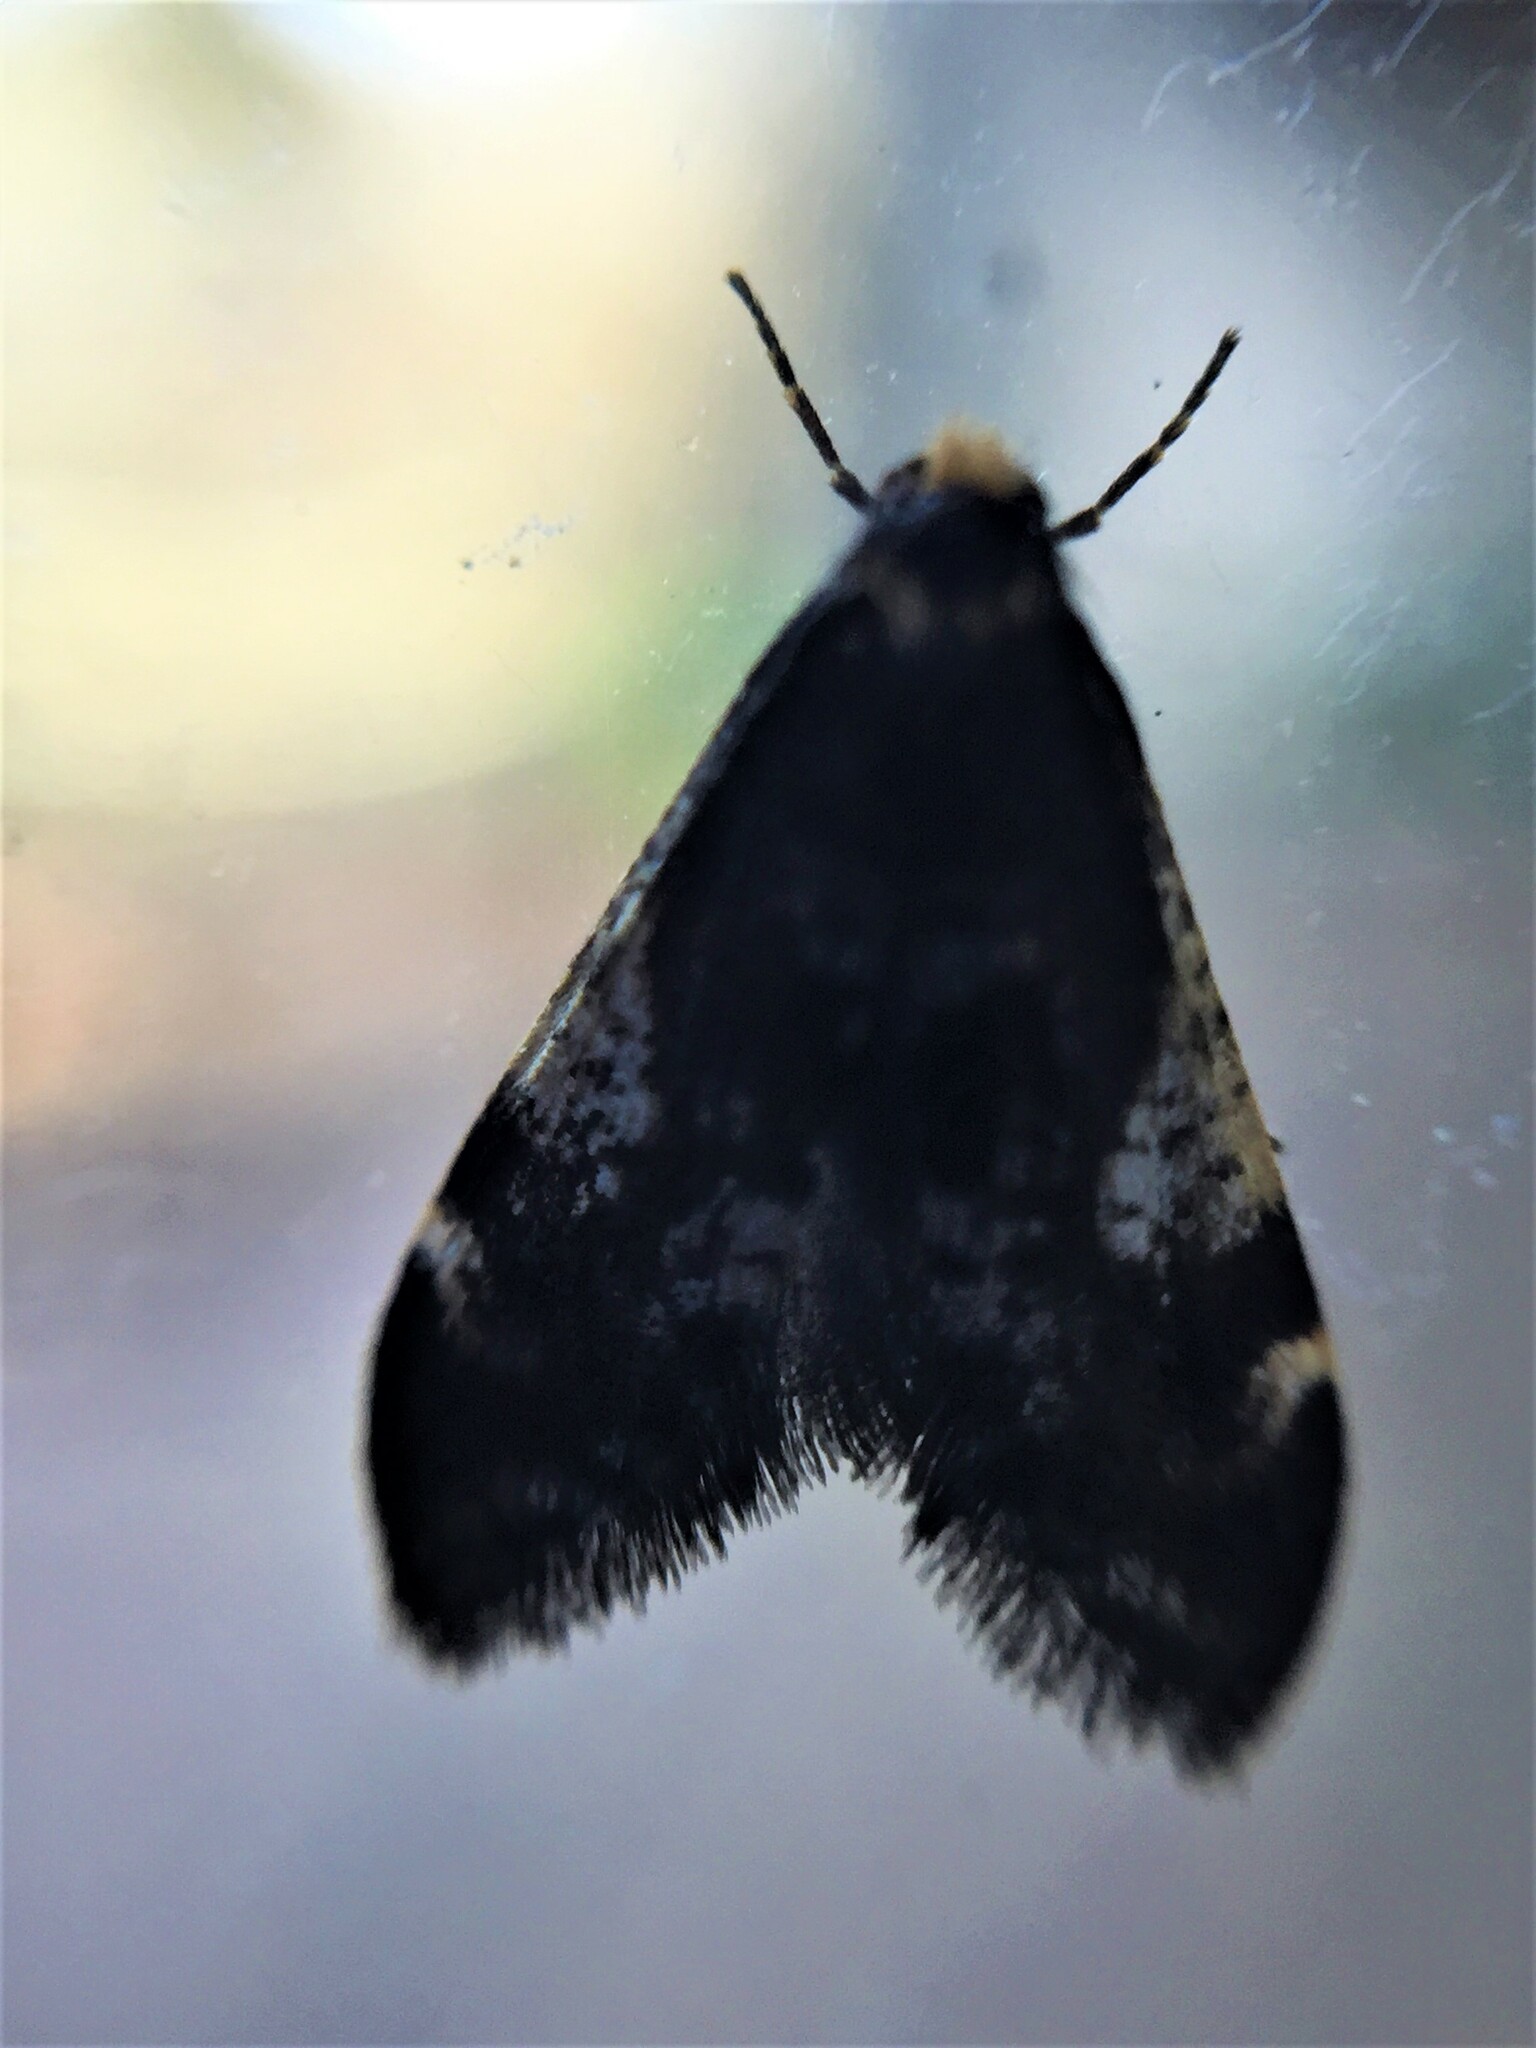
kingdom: Animalia
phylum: Arthropoda
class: Insecta
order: Lepidoptera
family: Psychidae
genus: Lepidoscia
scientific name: Lepidoscia lainodes
